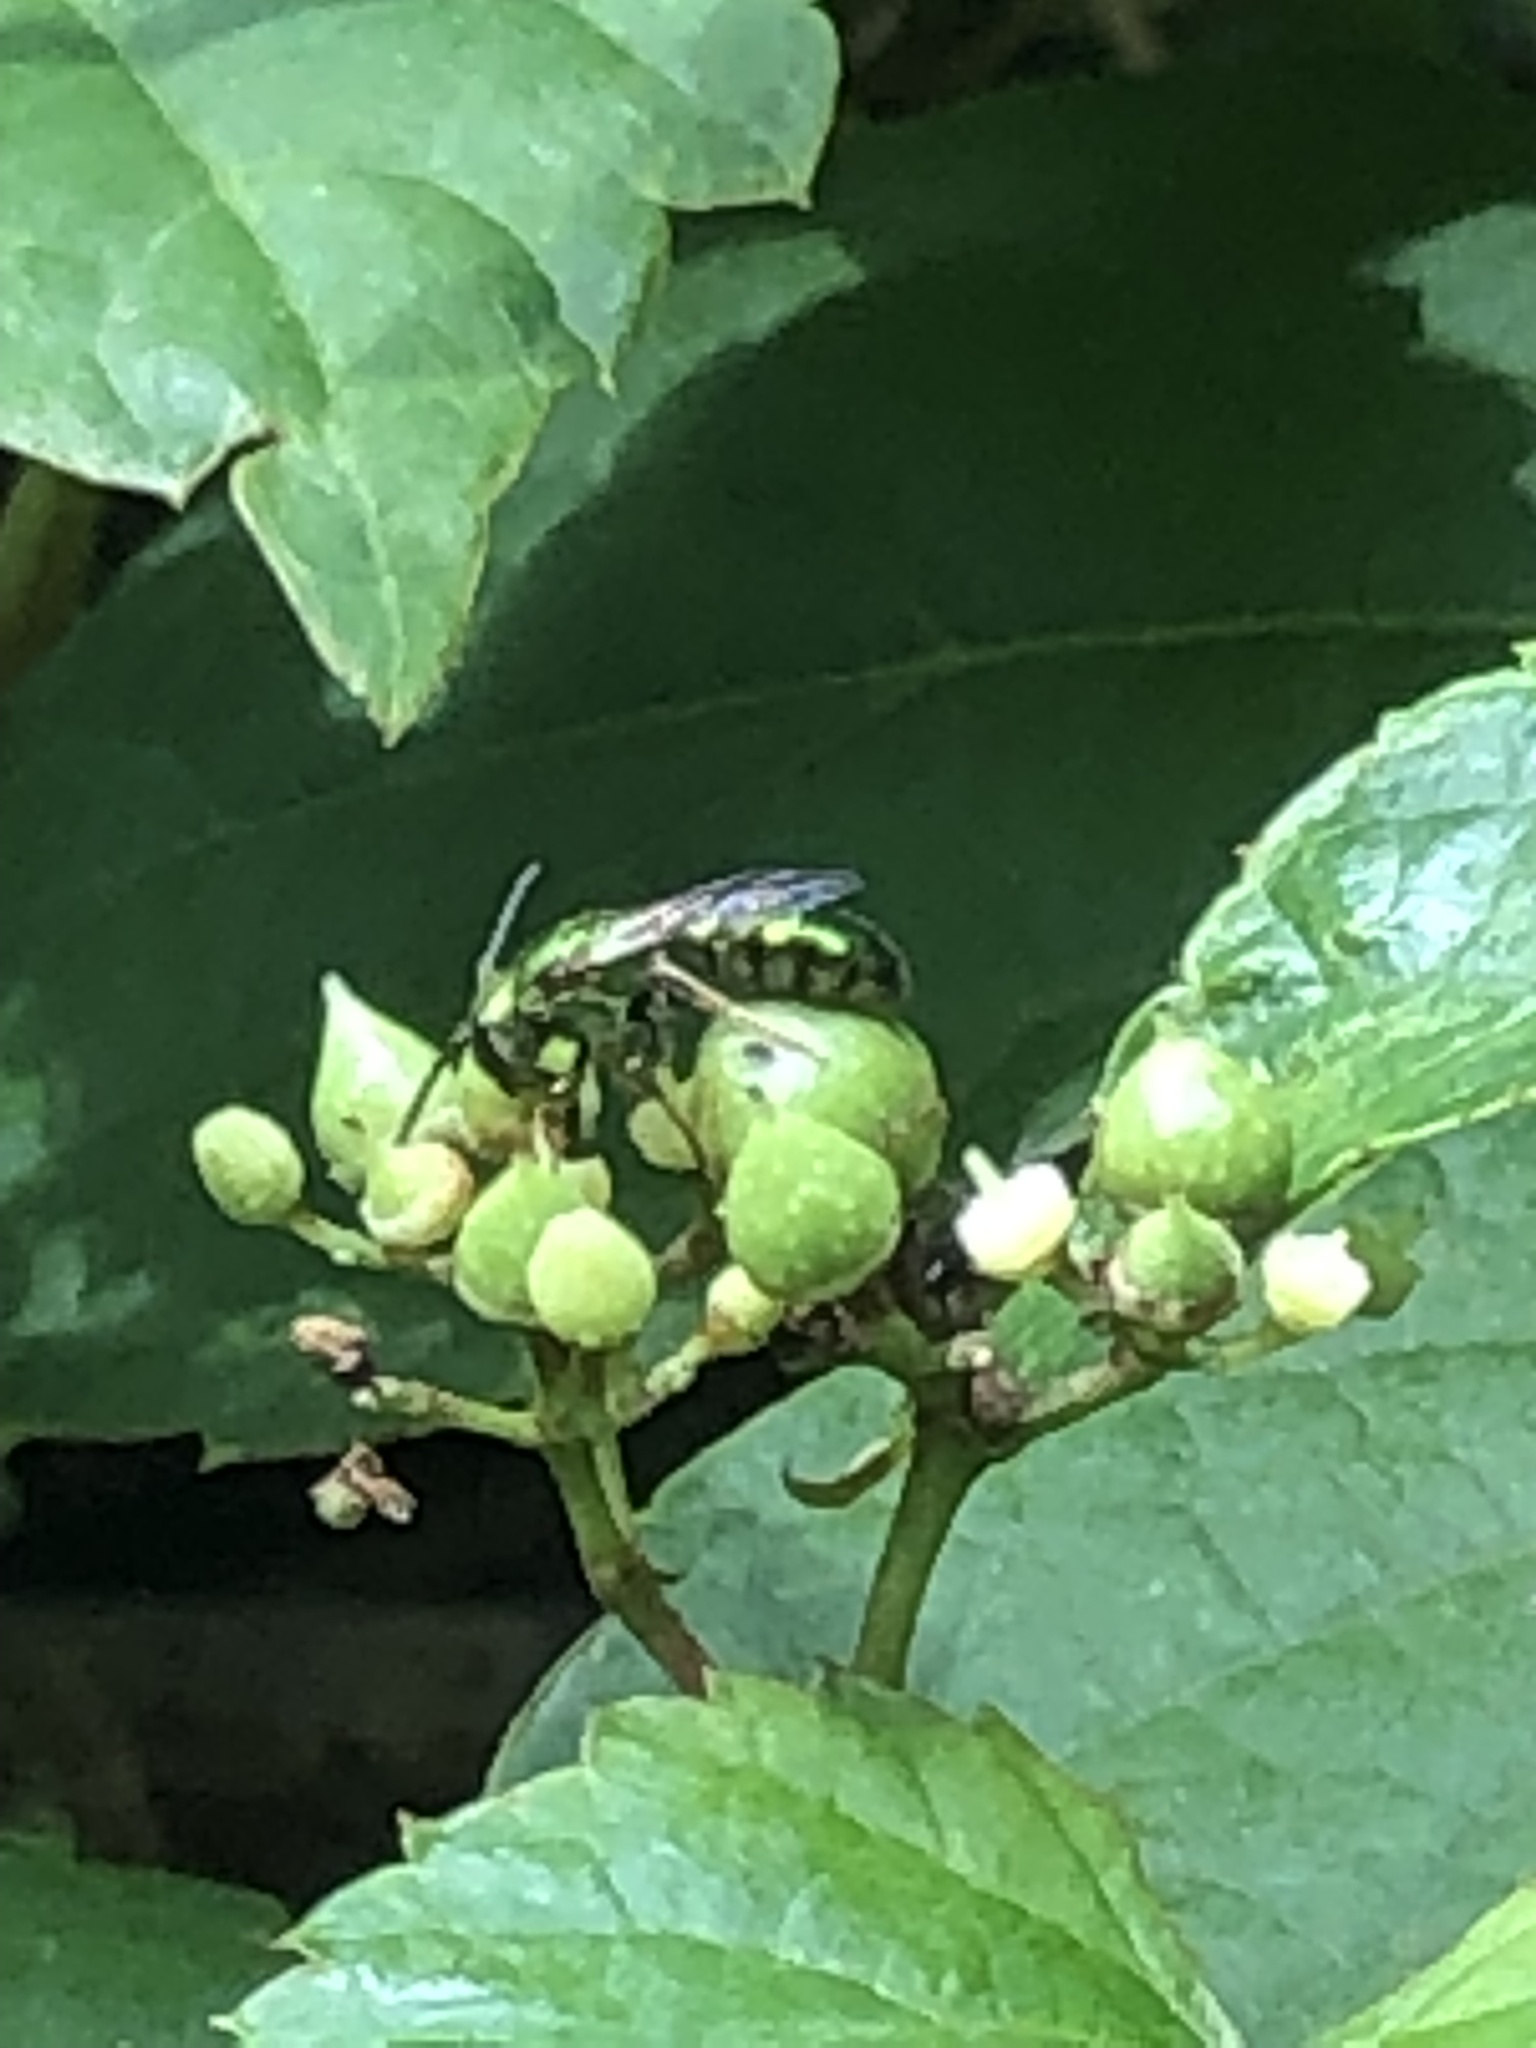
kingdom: Animalia
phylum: Arthropoda
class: Insecta
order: Hymenoptera
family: Halictidae
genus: Augochlora
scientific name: Augochlora pura
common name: Pure green sweat bee
